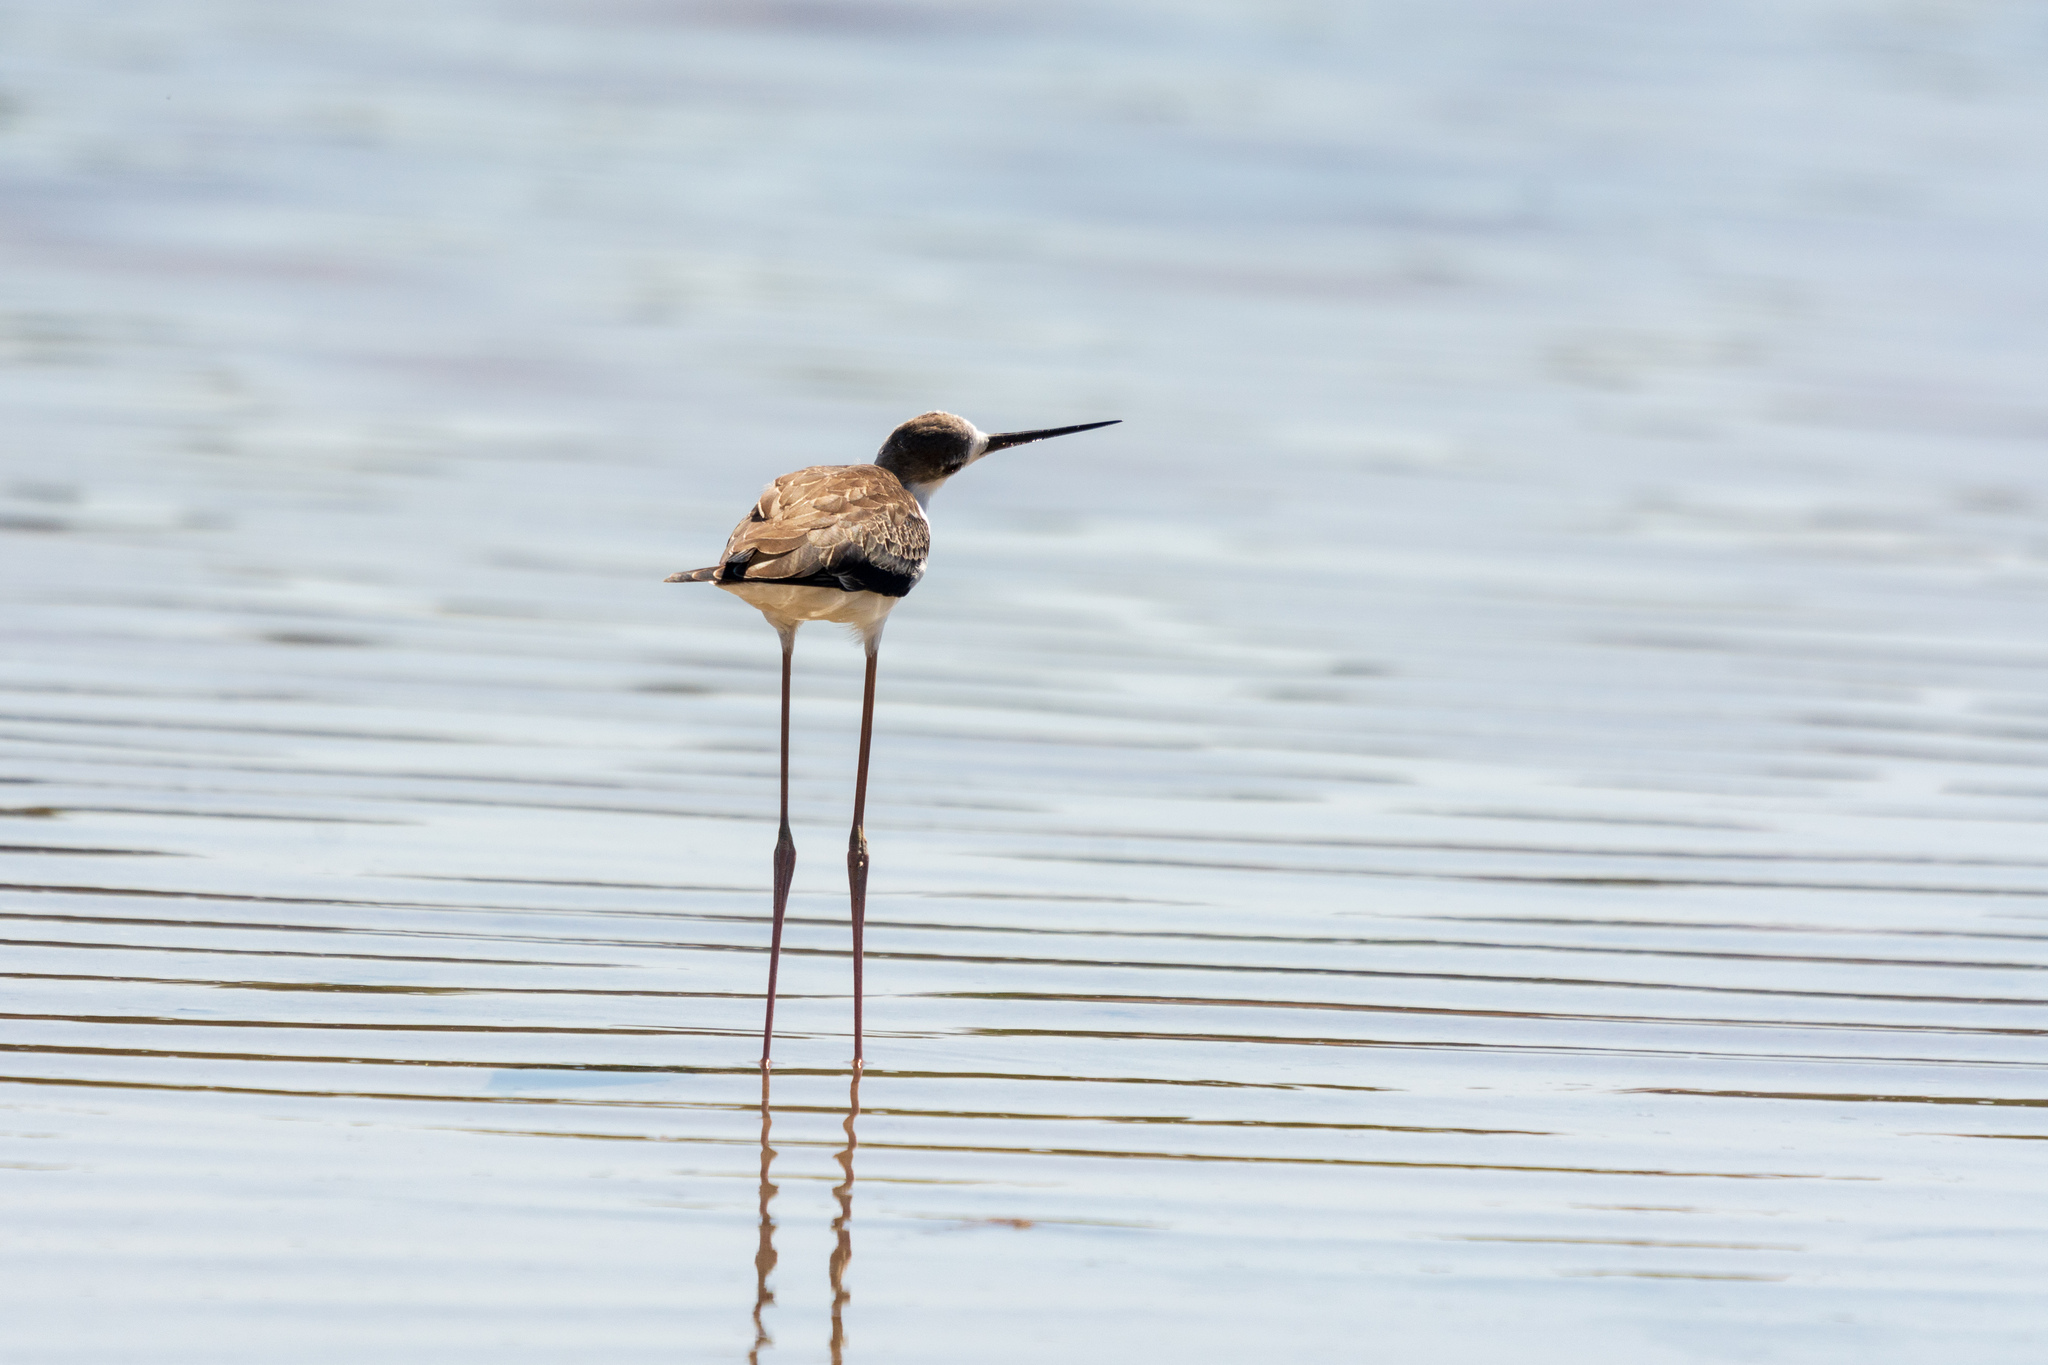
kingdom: Animalia
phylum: Chordata
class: Aves
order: Charadriiformes
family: Recurvirostridae
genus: Himantopus
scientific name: Himantopus himantopus
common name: Black-winged stilt
